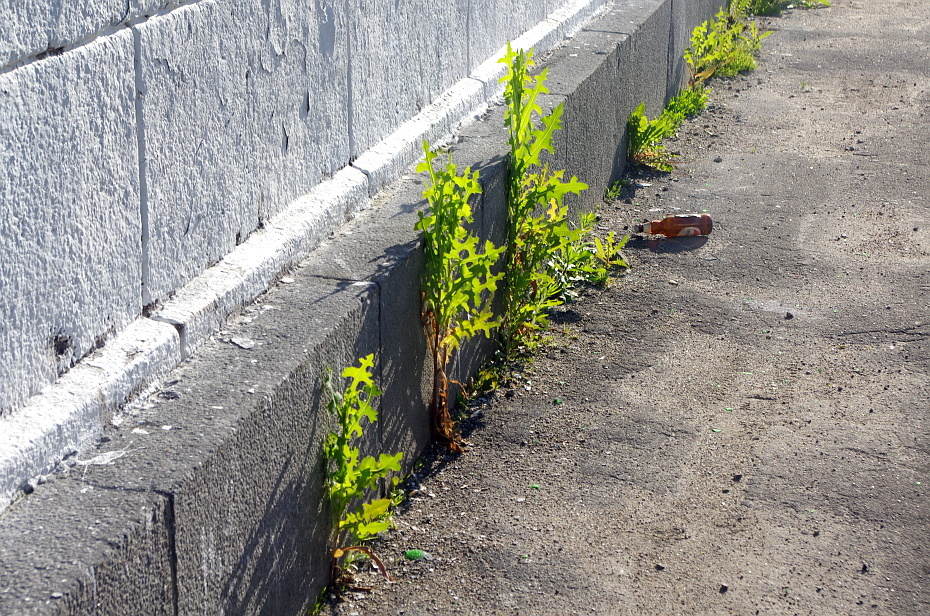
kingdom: Plantae
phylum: Tracheophyta
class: Magnoliopsida
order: Asterales
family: Asteraceae
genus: Lactuca
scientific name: Lactuca serriola
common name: Prickly lettuce
